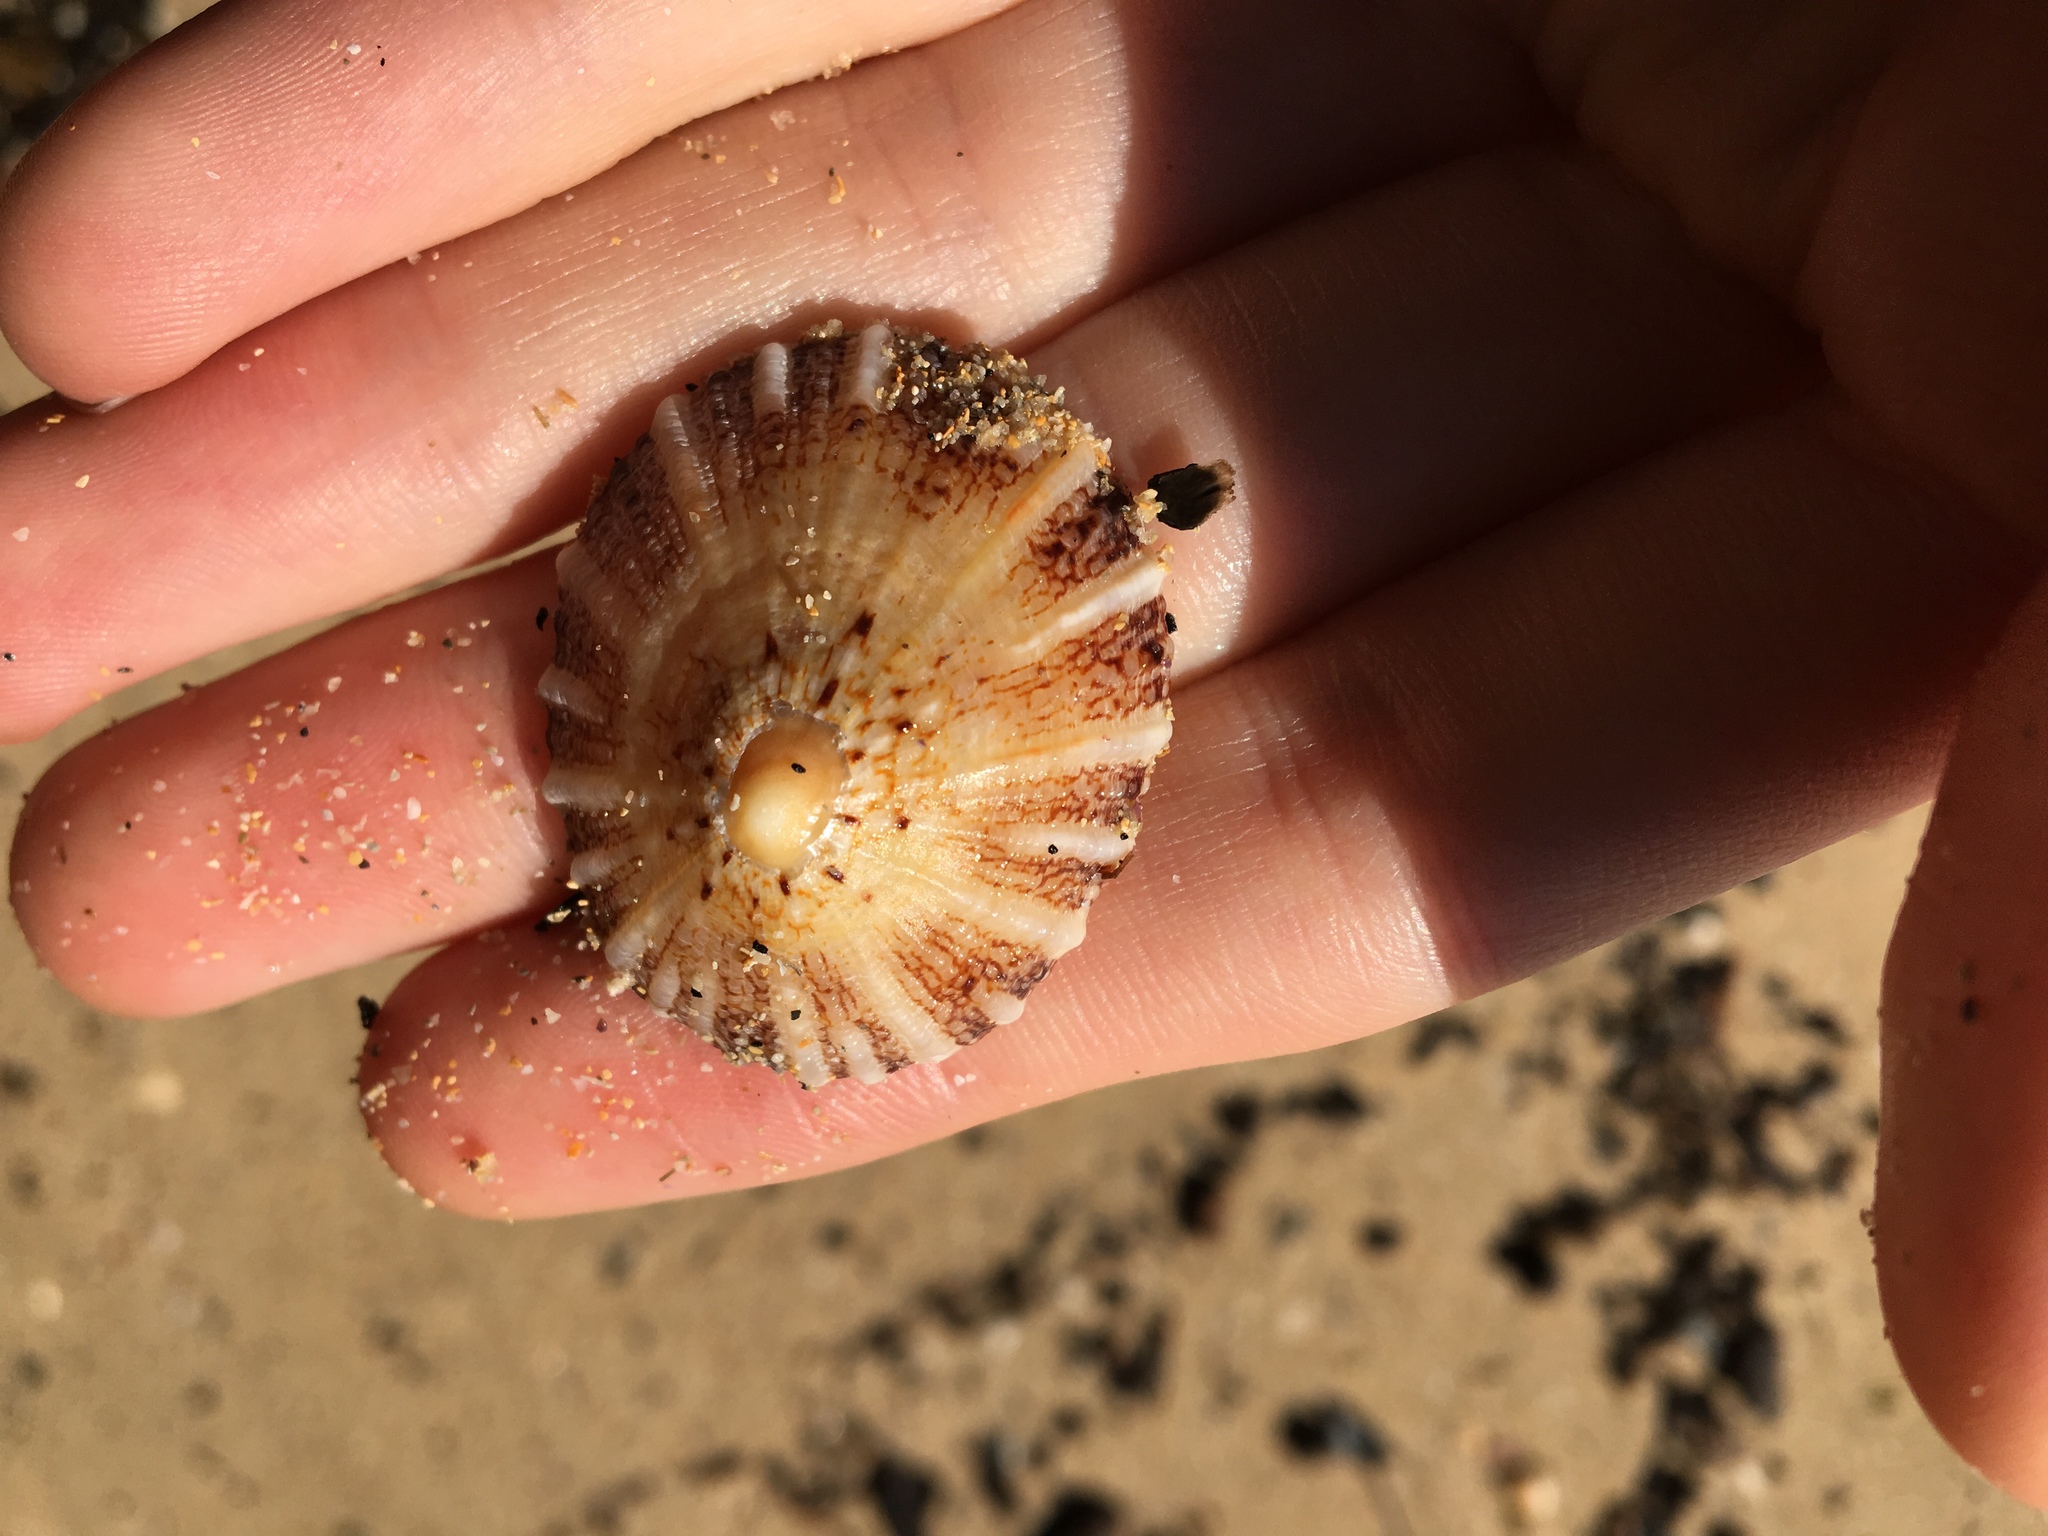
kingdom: Animalia
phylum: Mollusca
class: Gastropoda
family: Nacellidae
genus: Cellana
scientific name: Cellana tramoserica
